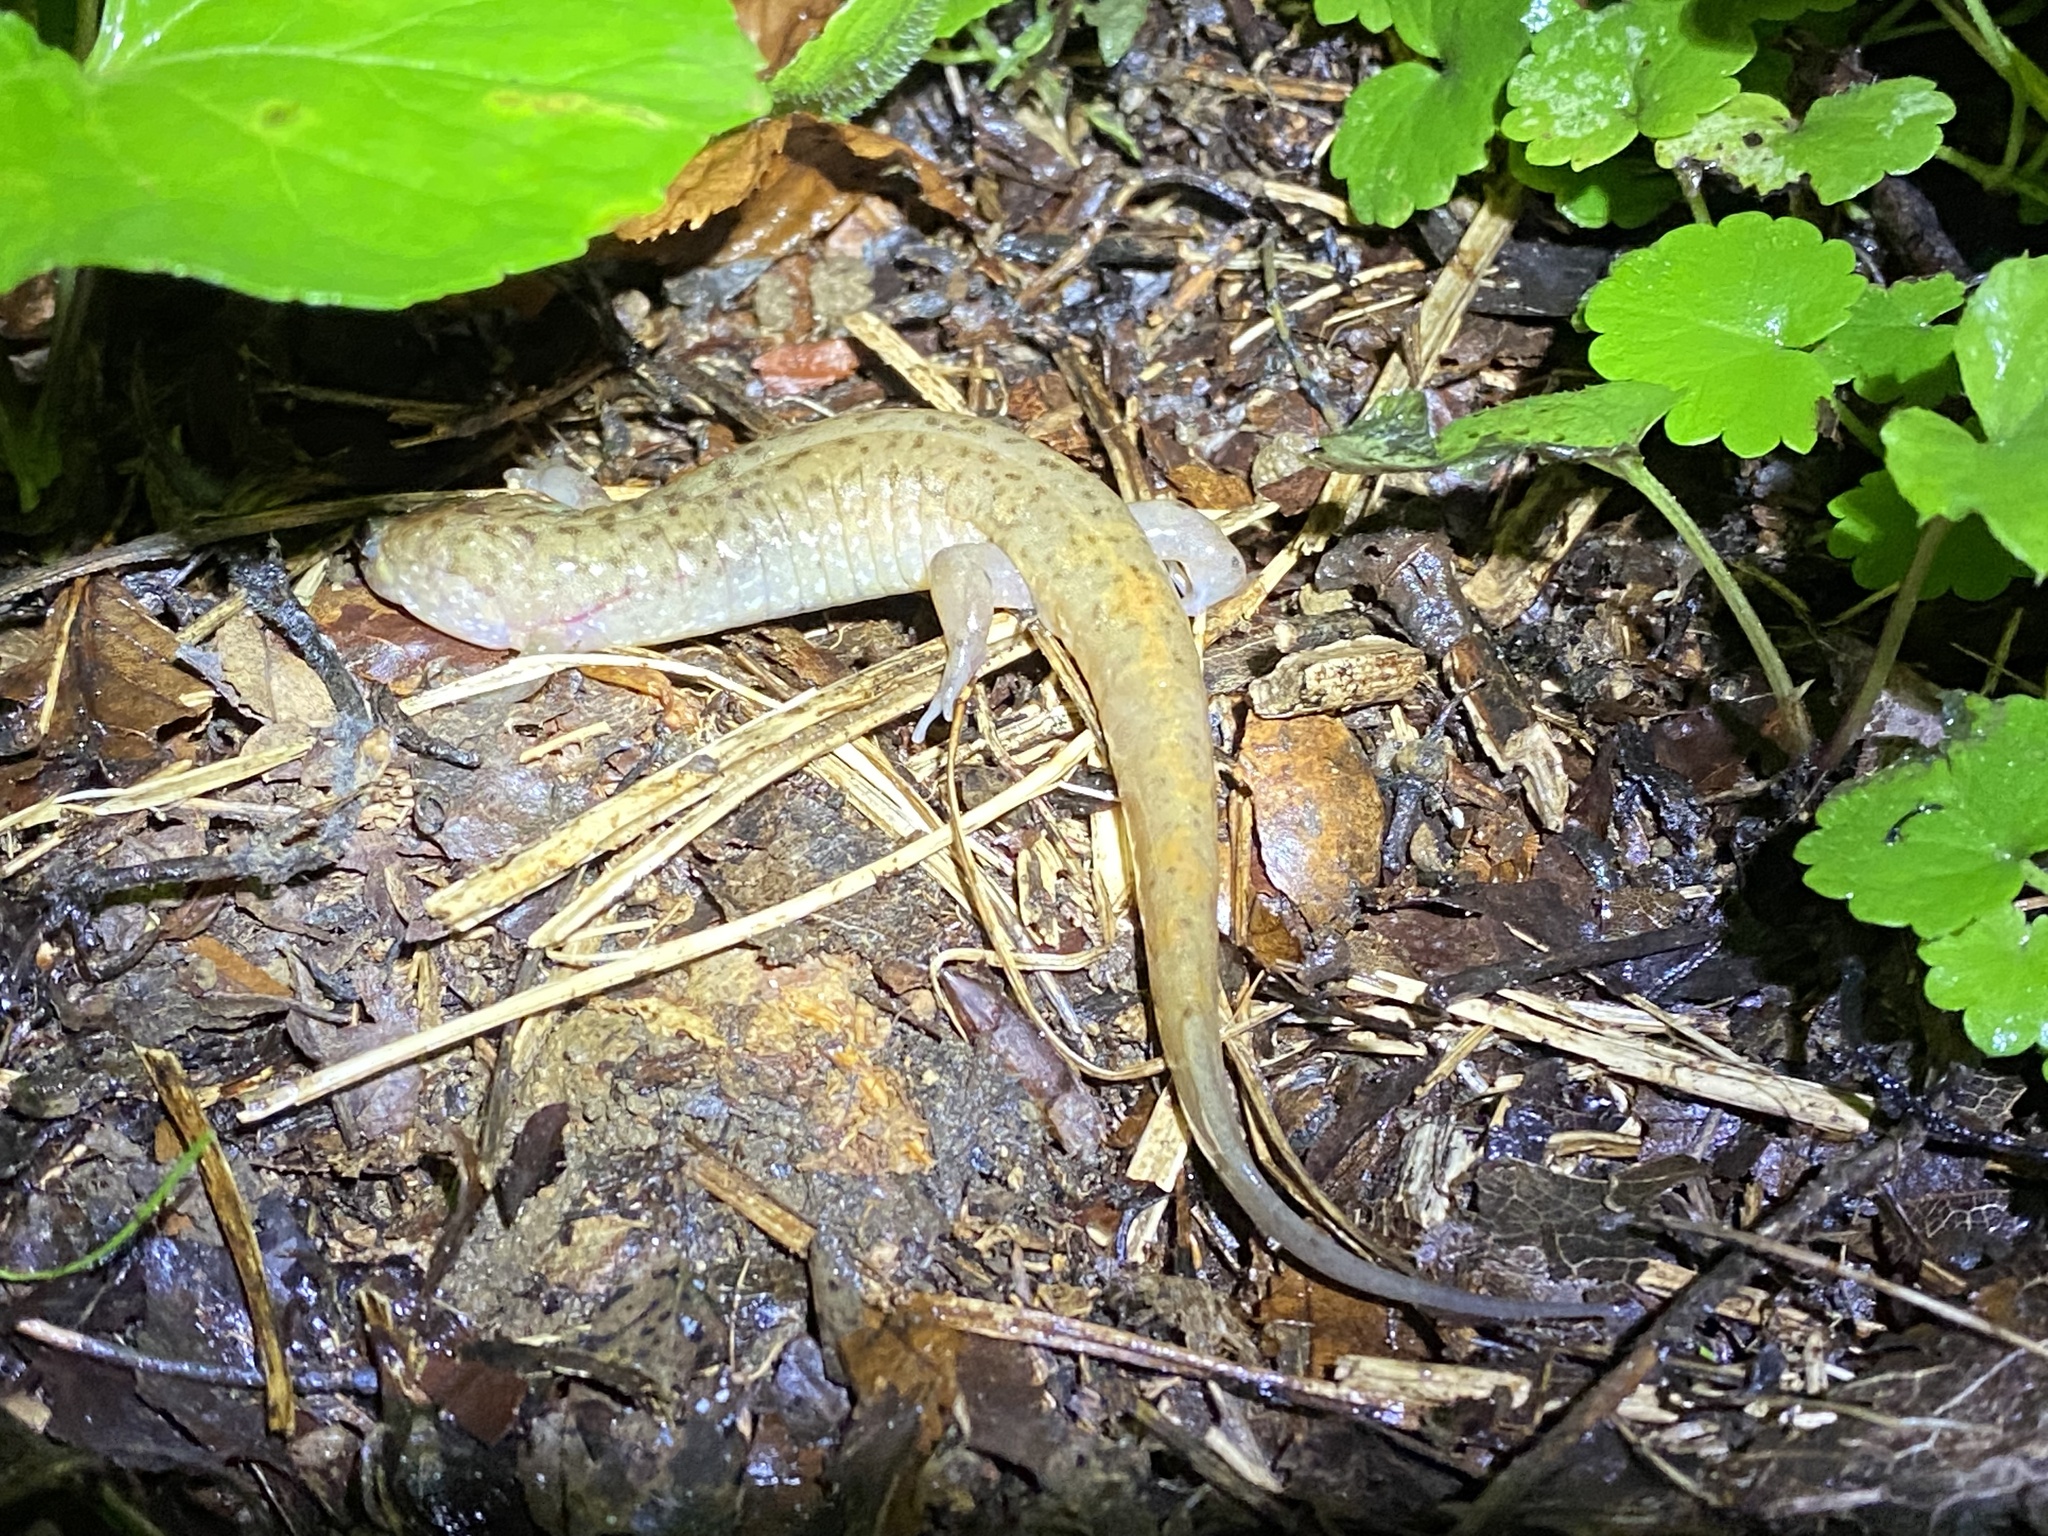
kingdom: Animalia
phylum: Chordata
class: Amphibia
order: Caudata
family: Plethodontidae
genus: Desmognathus
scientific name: Desmognathus monticola
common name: Seal salamander
